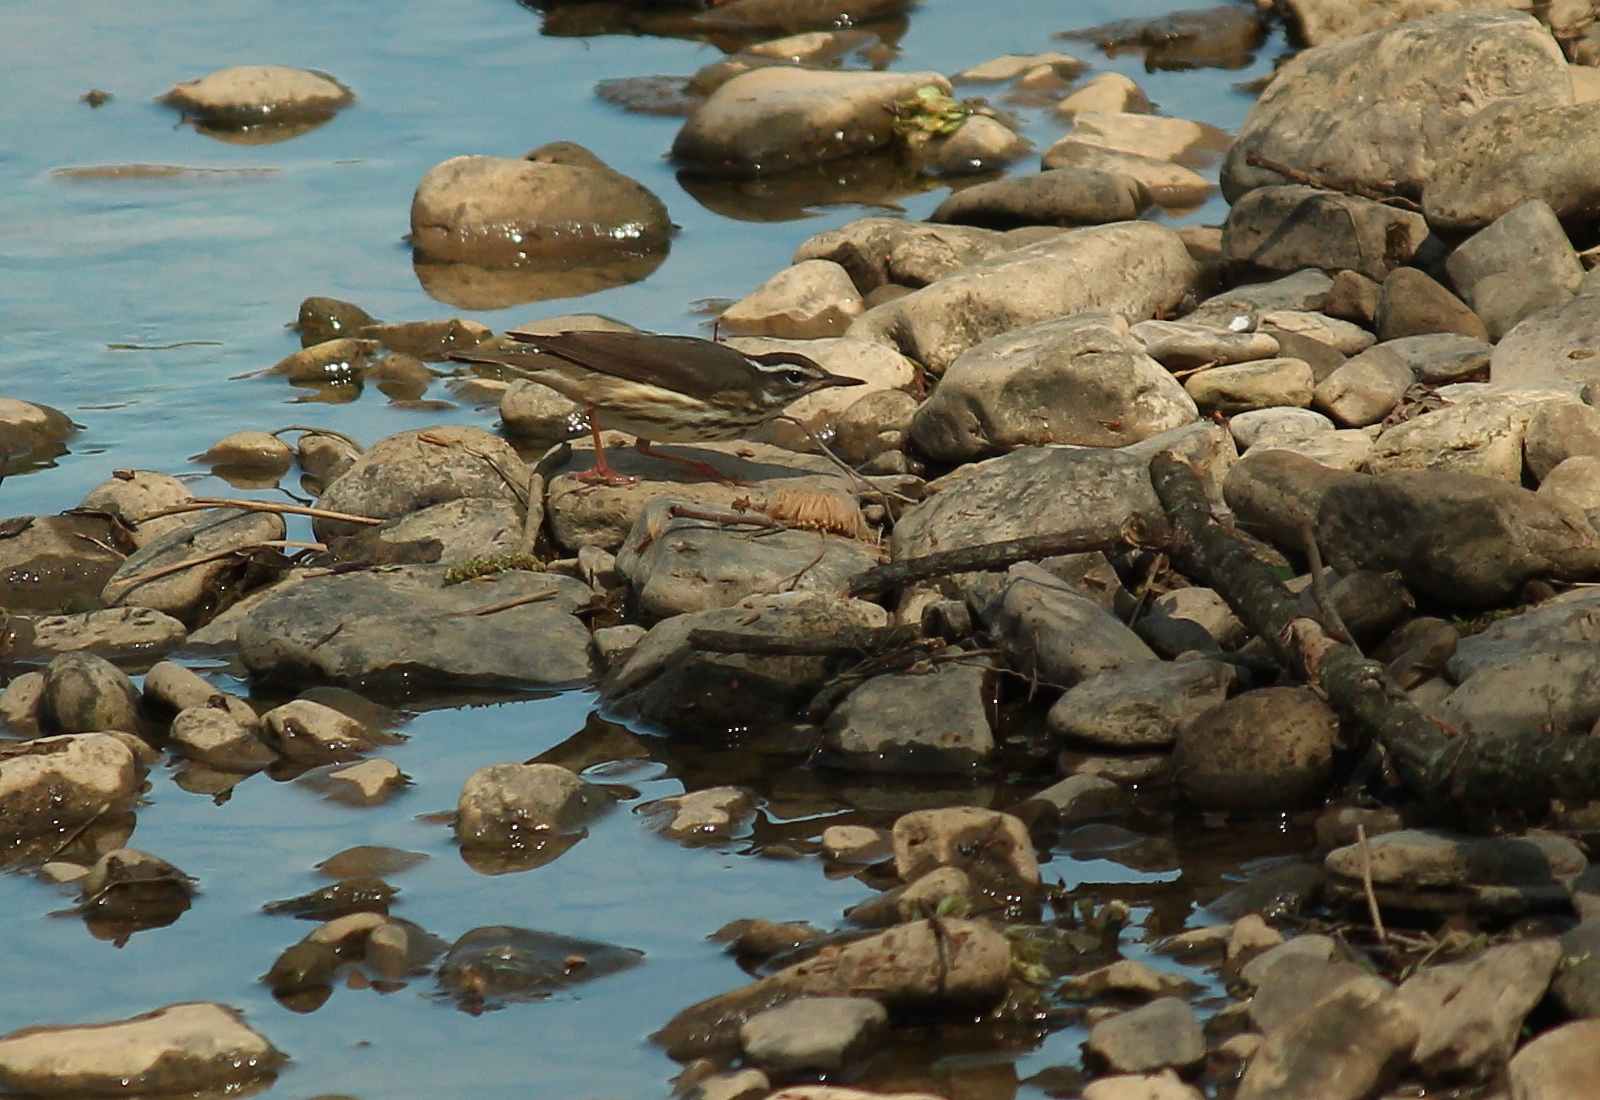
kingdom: Animalia
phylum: Chordata
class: Aves
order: Passeriformes
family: Parulidae
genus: Parkesia
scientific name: Parkesia motacilla
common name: Louisiana waterthrush
